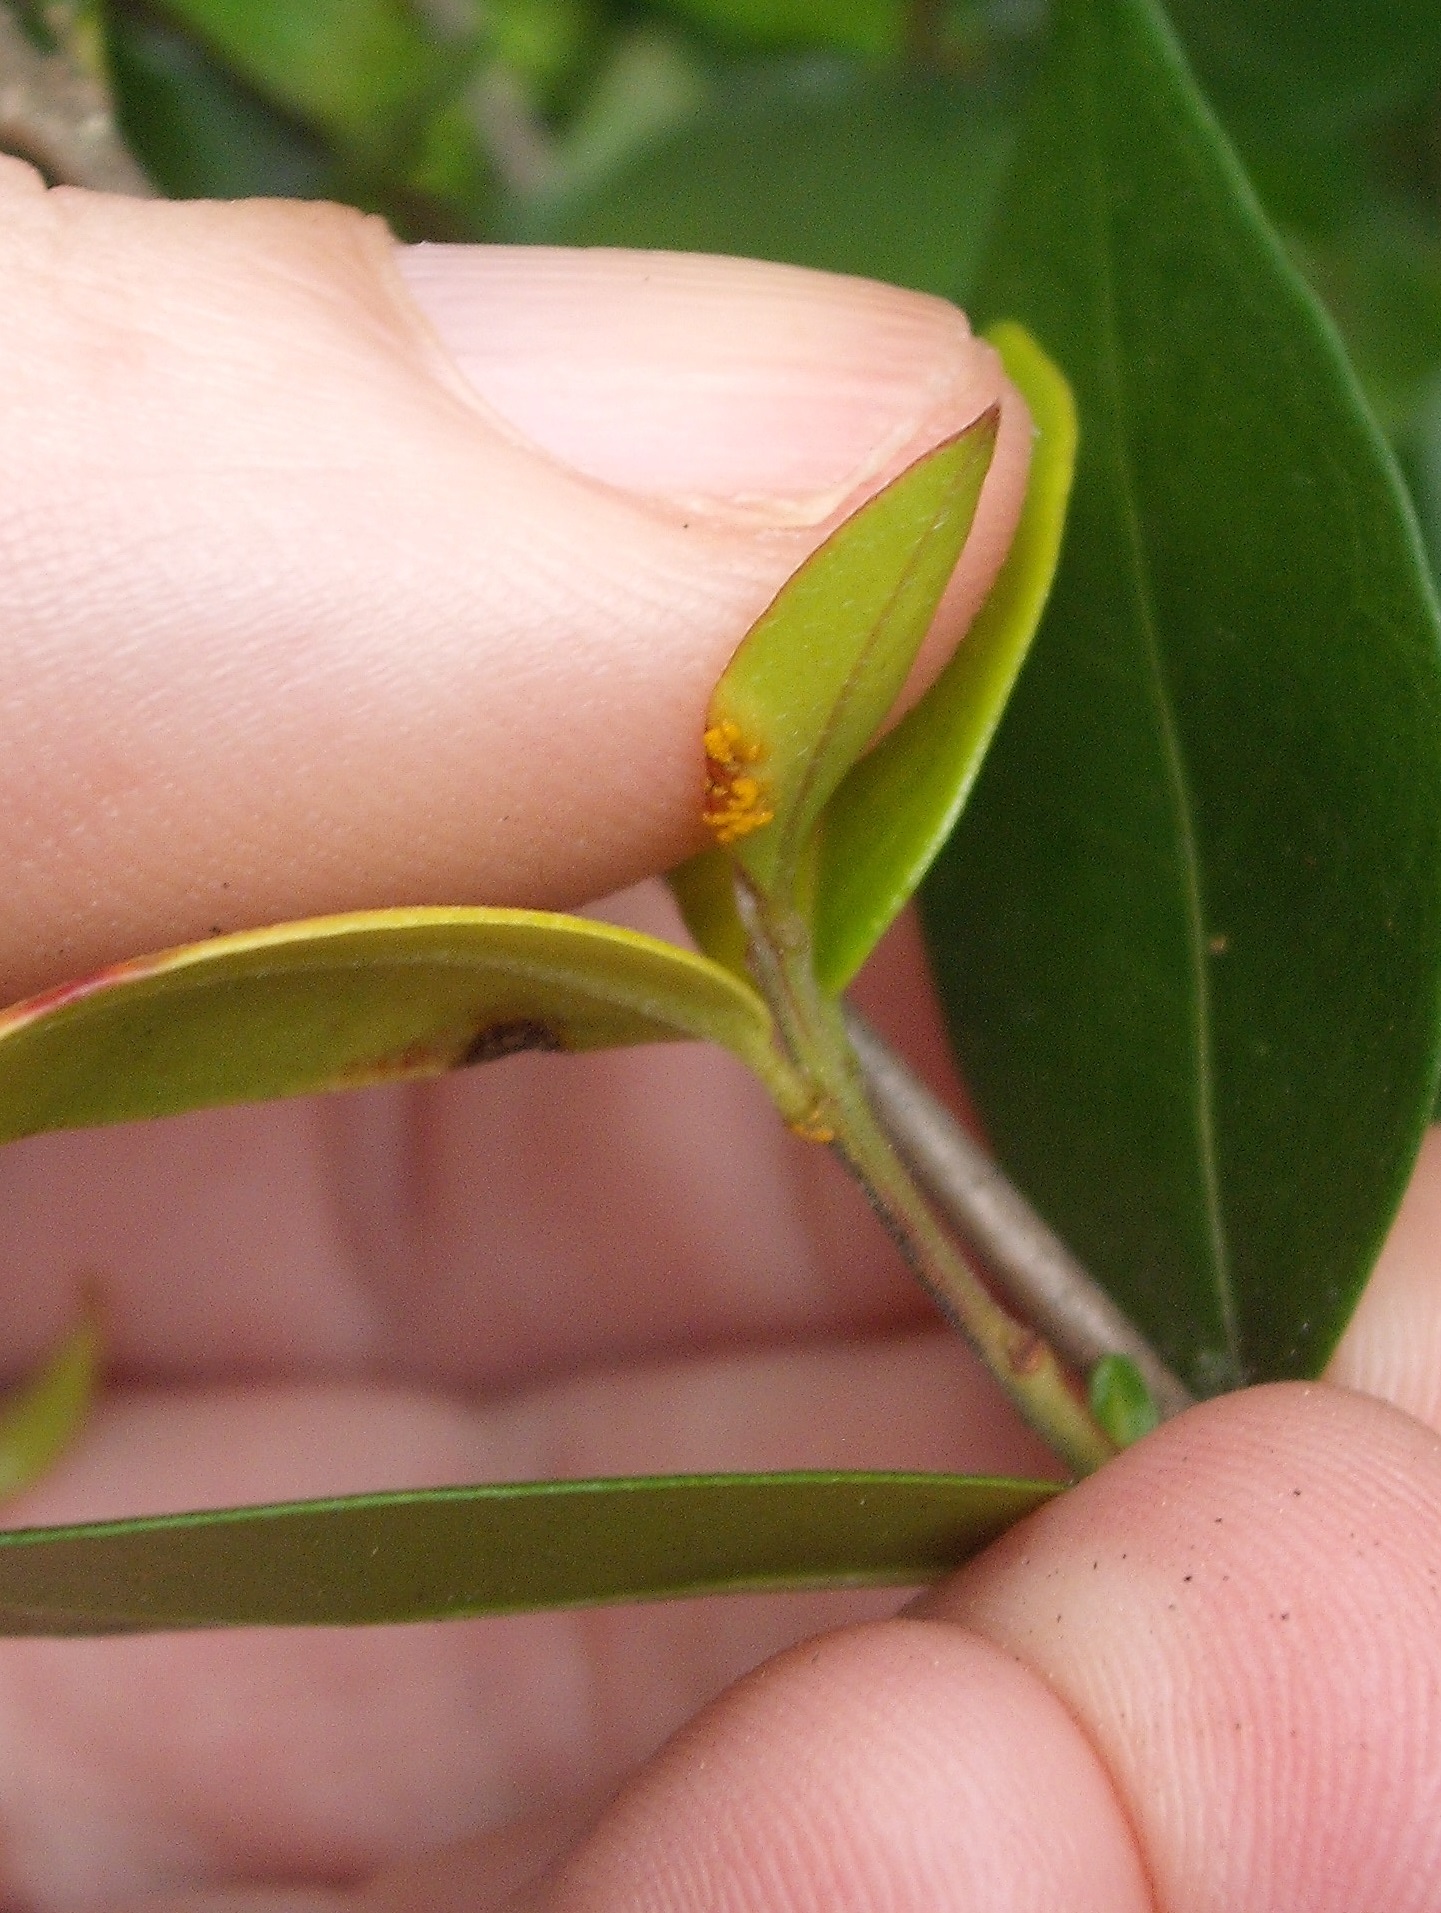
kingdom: Fungi
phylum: Basidiomycota
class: Pucciniomycetes
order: Pucciniales
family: Sphaerophragmiaceae
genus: Austropuccinia
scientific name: Austropuccinia psidii
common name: Myrtle rust
